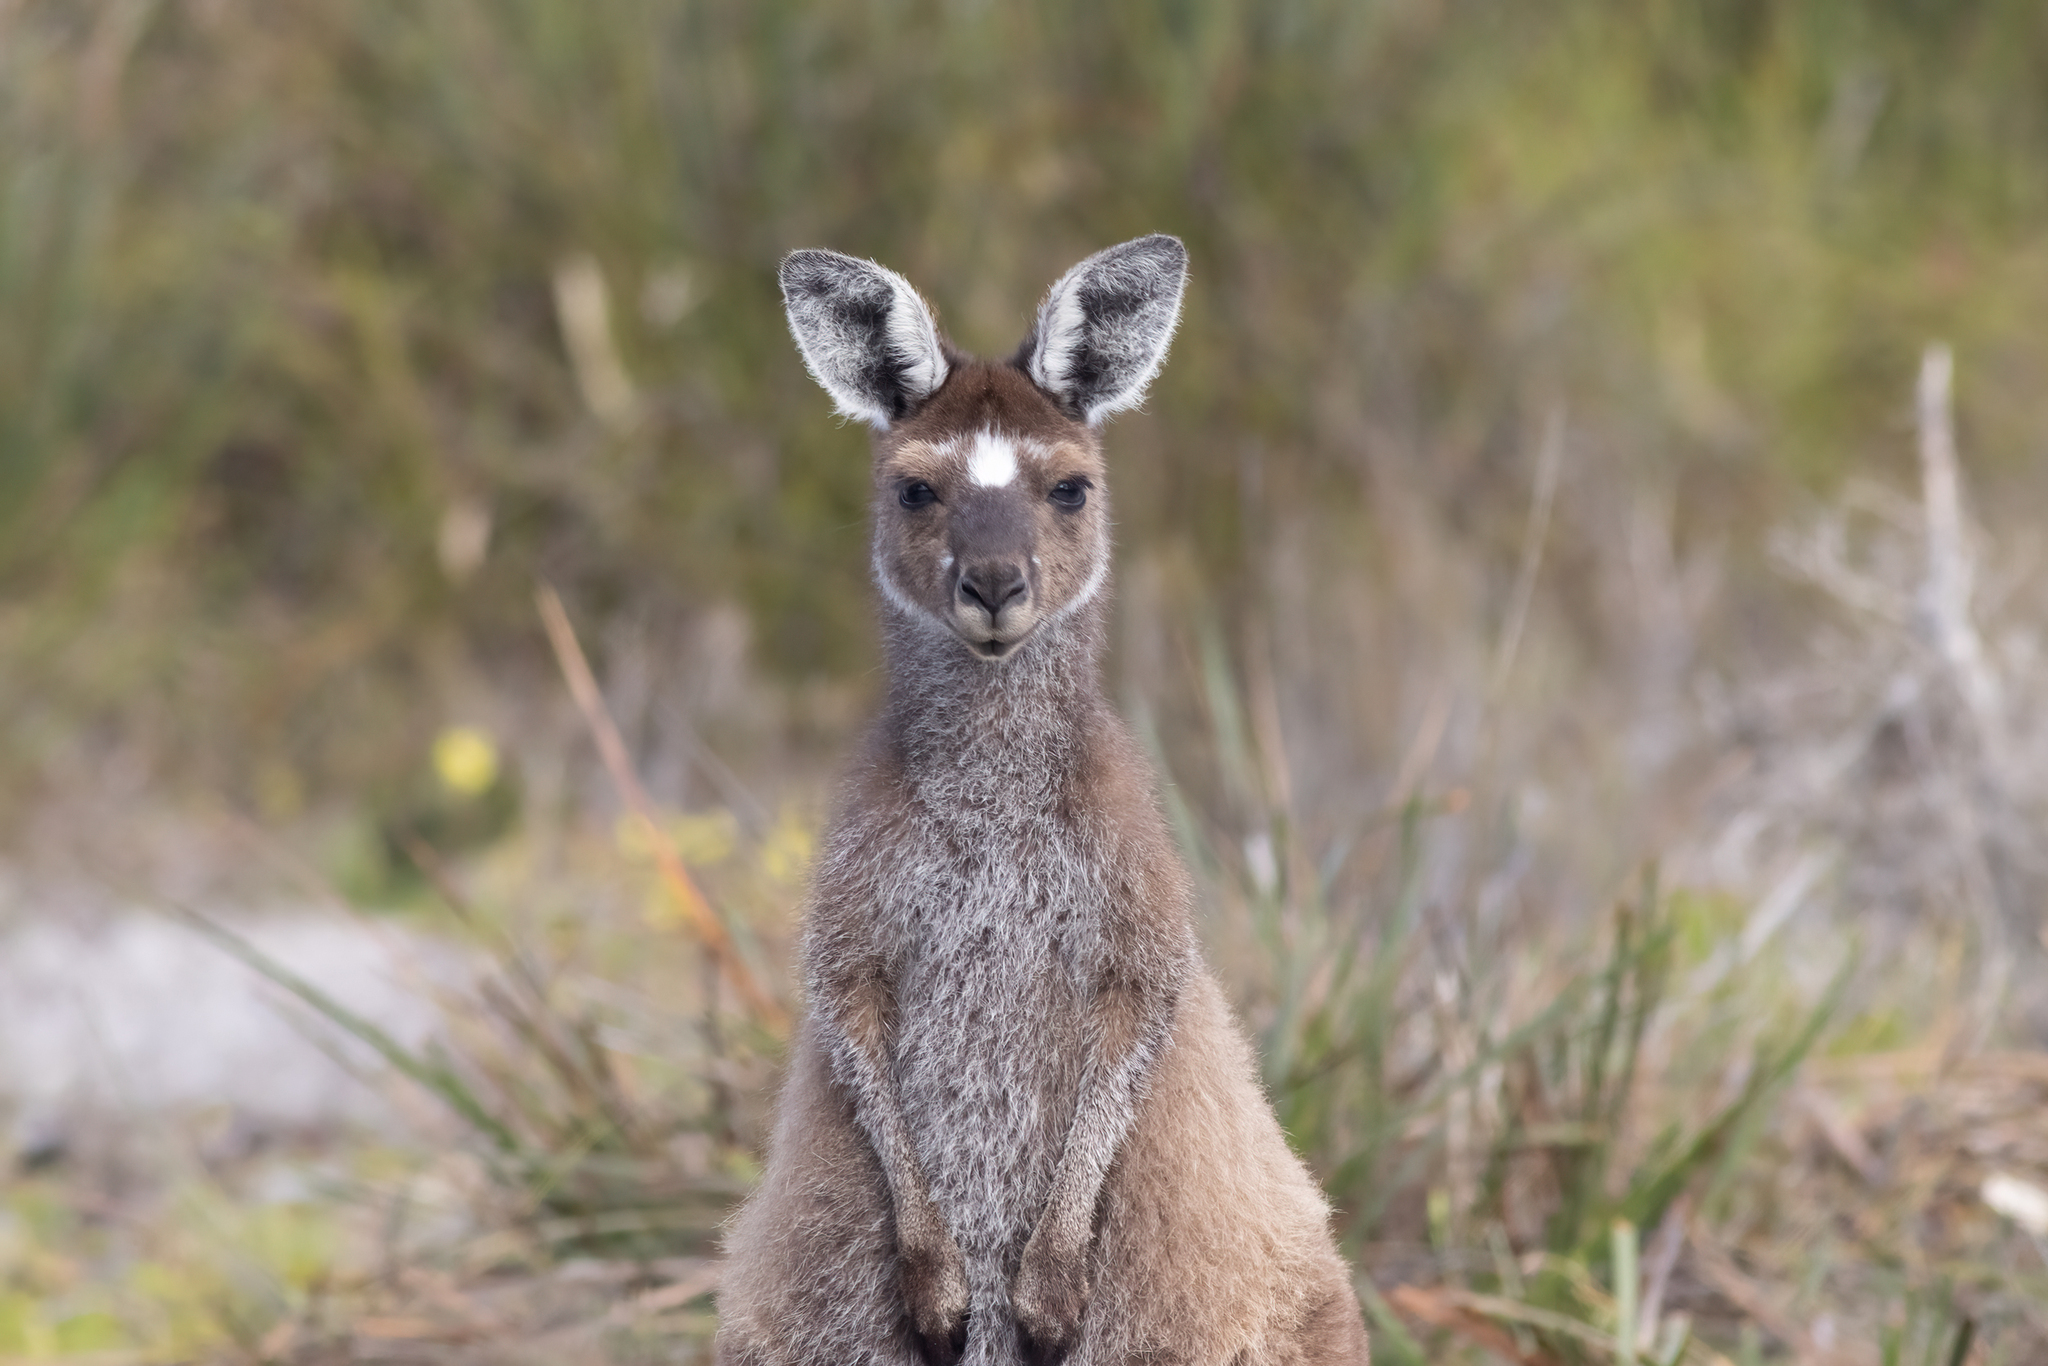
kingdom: Animalia
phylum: Chordata
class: Mammalia
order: Diprotodontia
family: Macropodidae
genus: Macropus
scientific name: Macropus fuliginosus
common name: Western grey kangaroo
